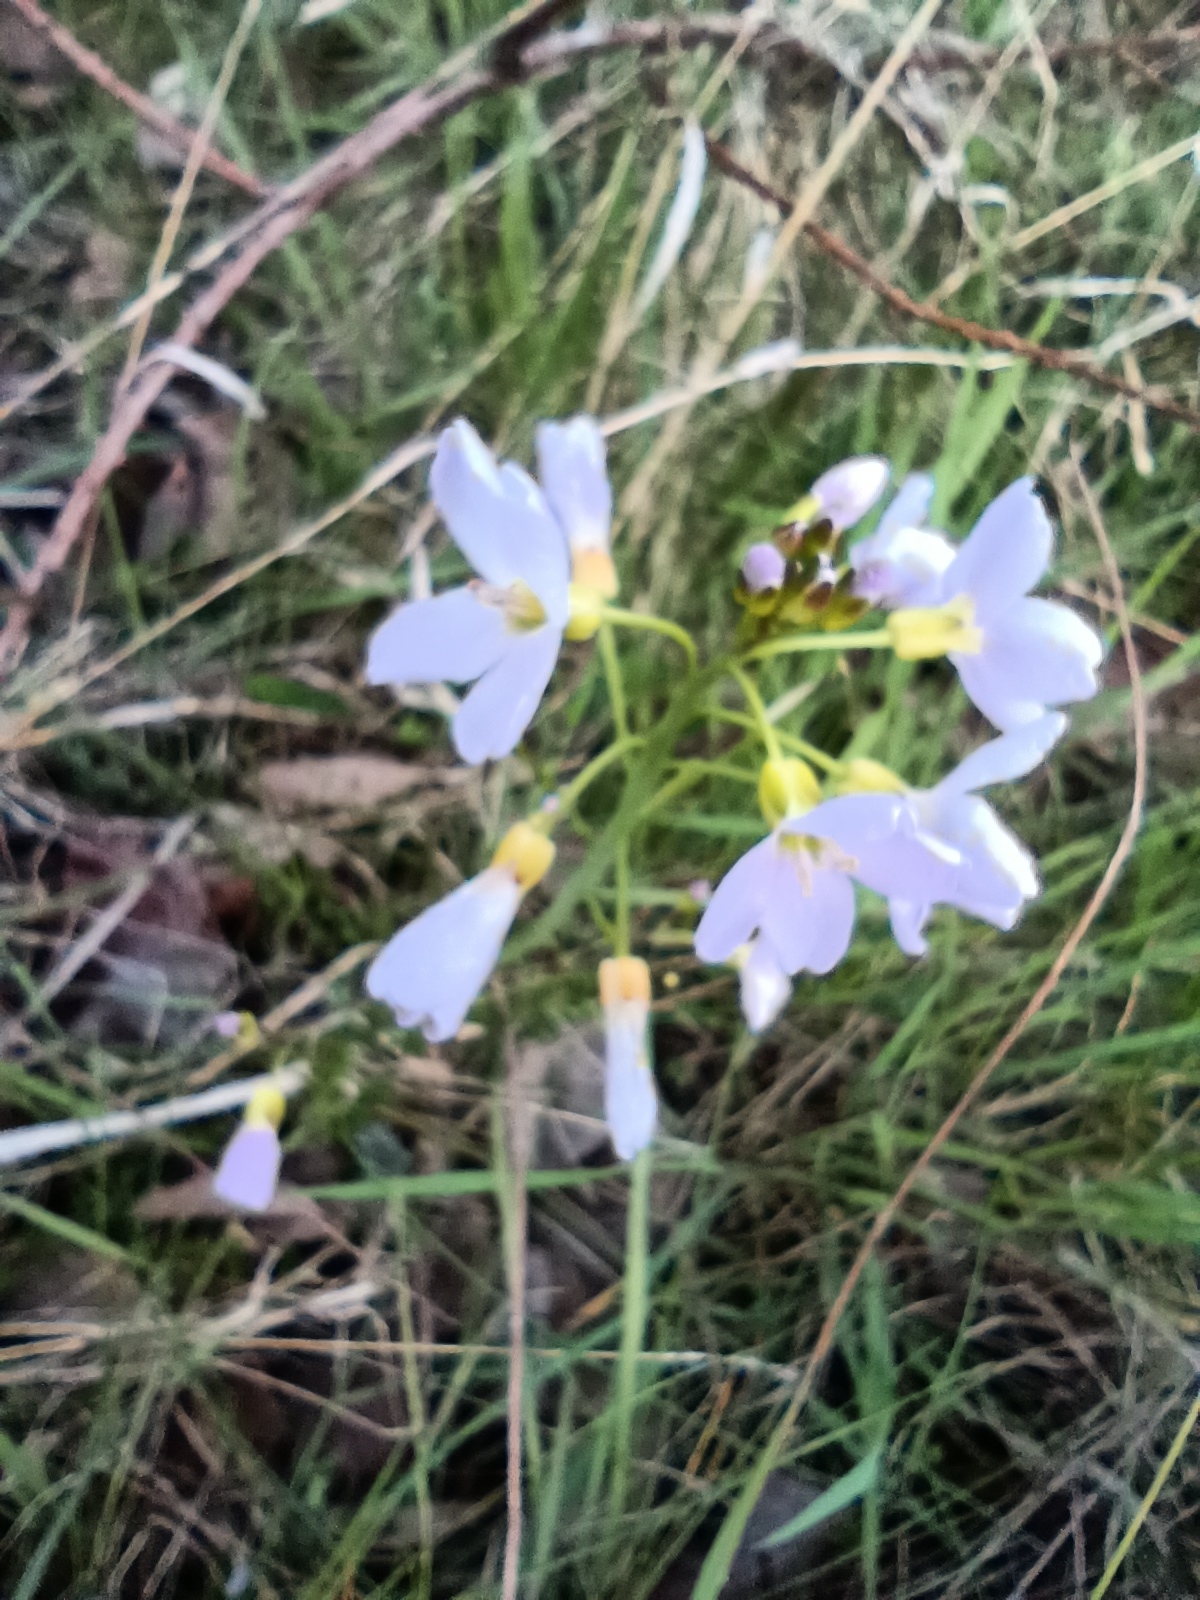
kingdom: Plantae
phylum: Tracheophyta
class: Magnoliopsida
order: Brassicales
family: Brassicaceae
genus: Cardamine
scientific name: Cardamine pratensis
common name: Cuckoo flower
